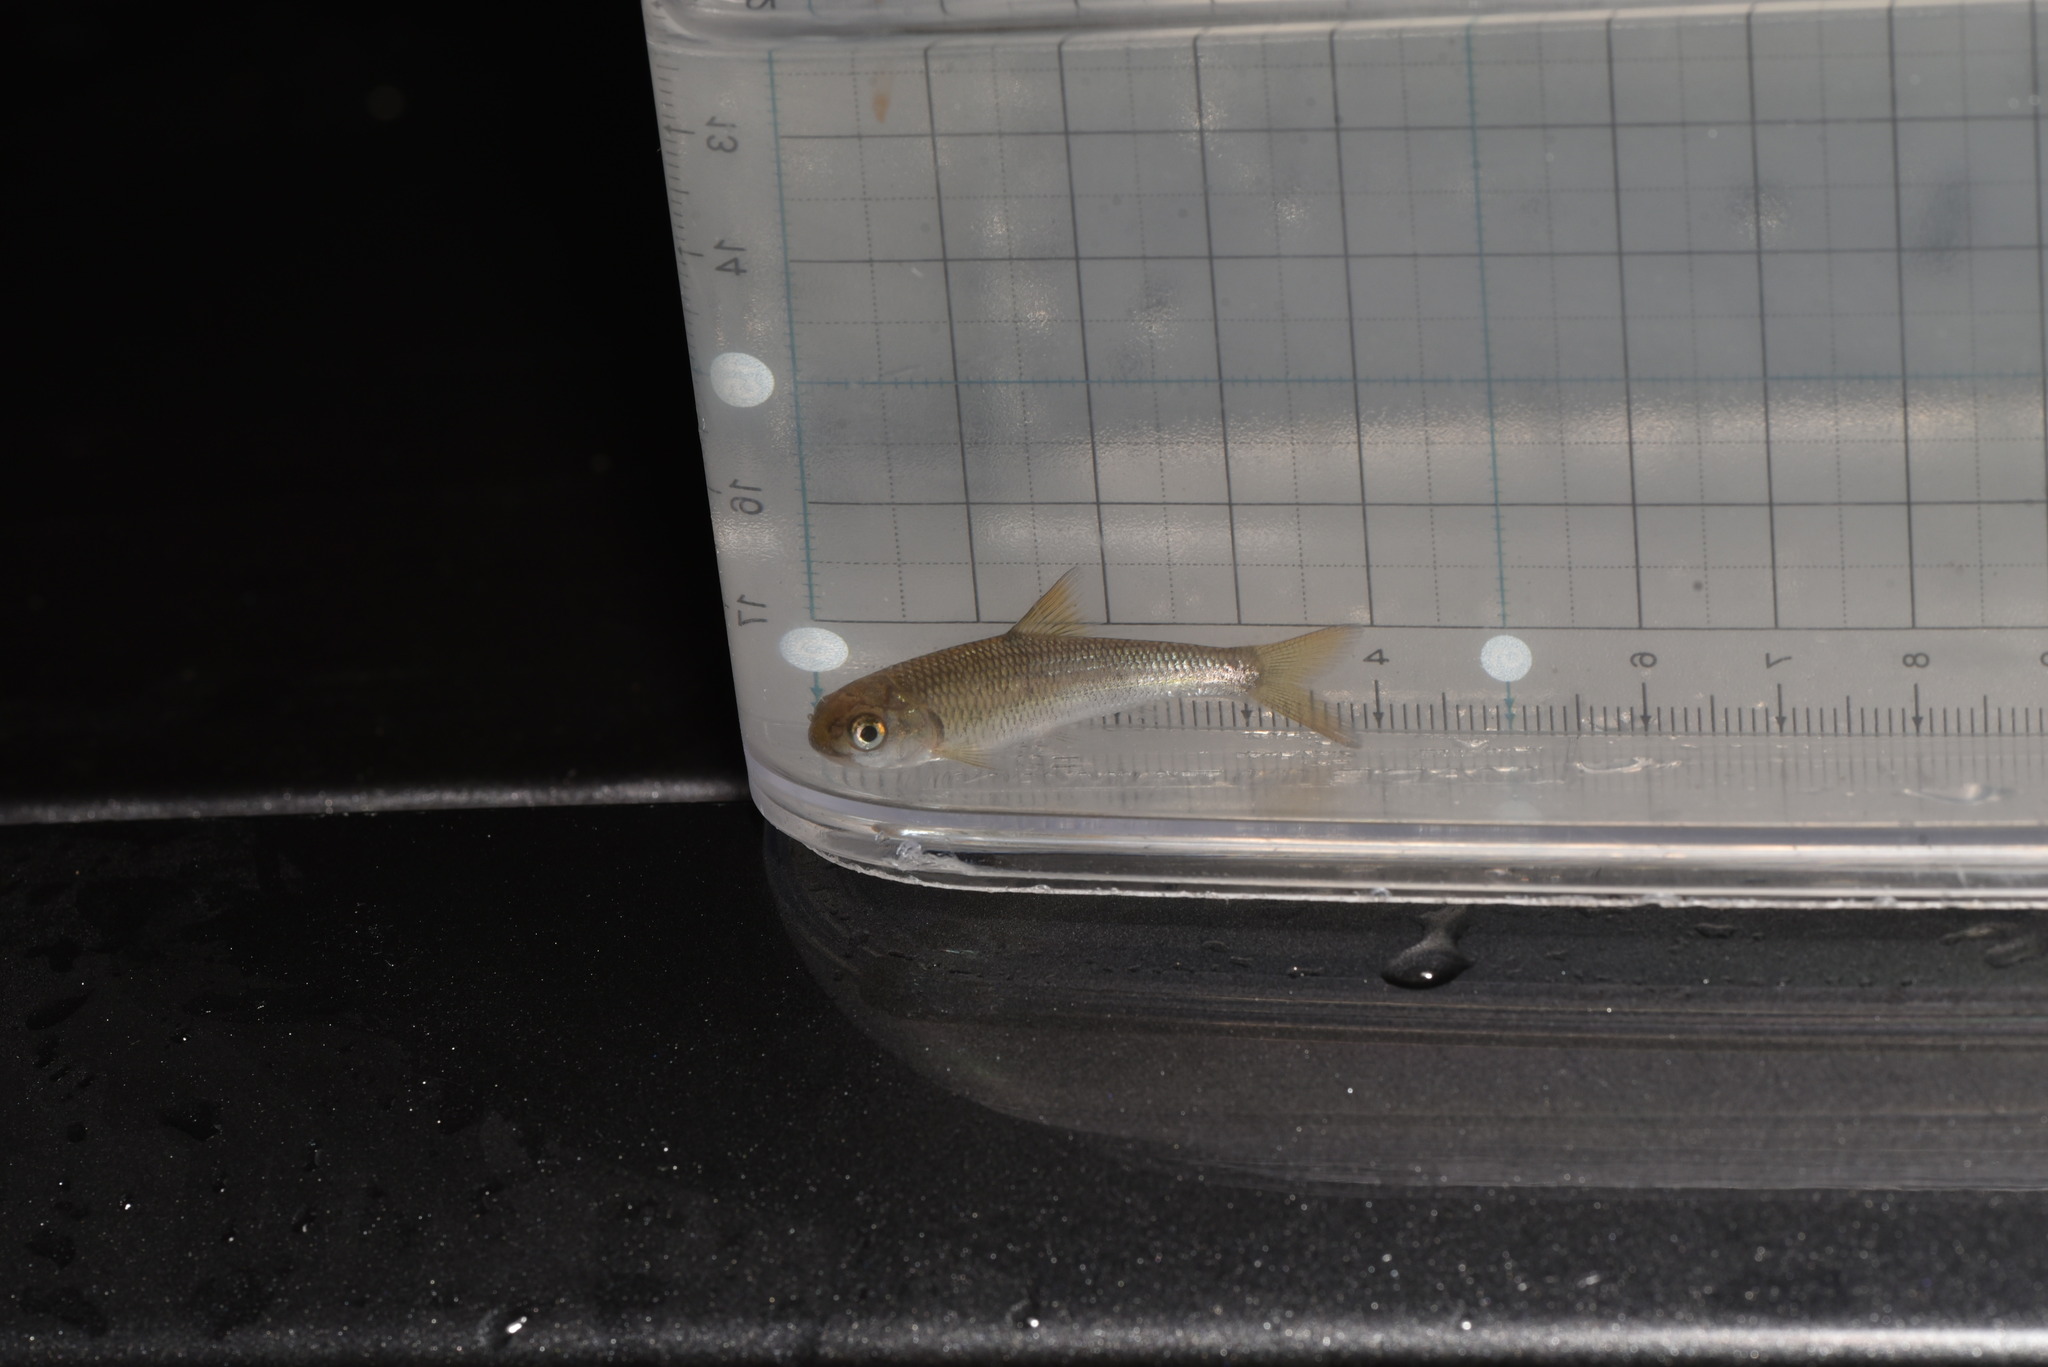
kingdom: Animalia
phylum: Chordata
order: Cypriniformes
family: Cyprinidae
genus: Onychostoma
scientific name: Onychostoma barbatulum
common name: Taiwan shoveljaw carp
